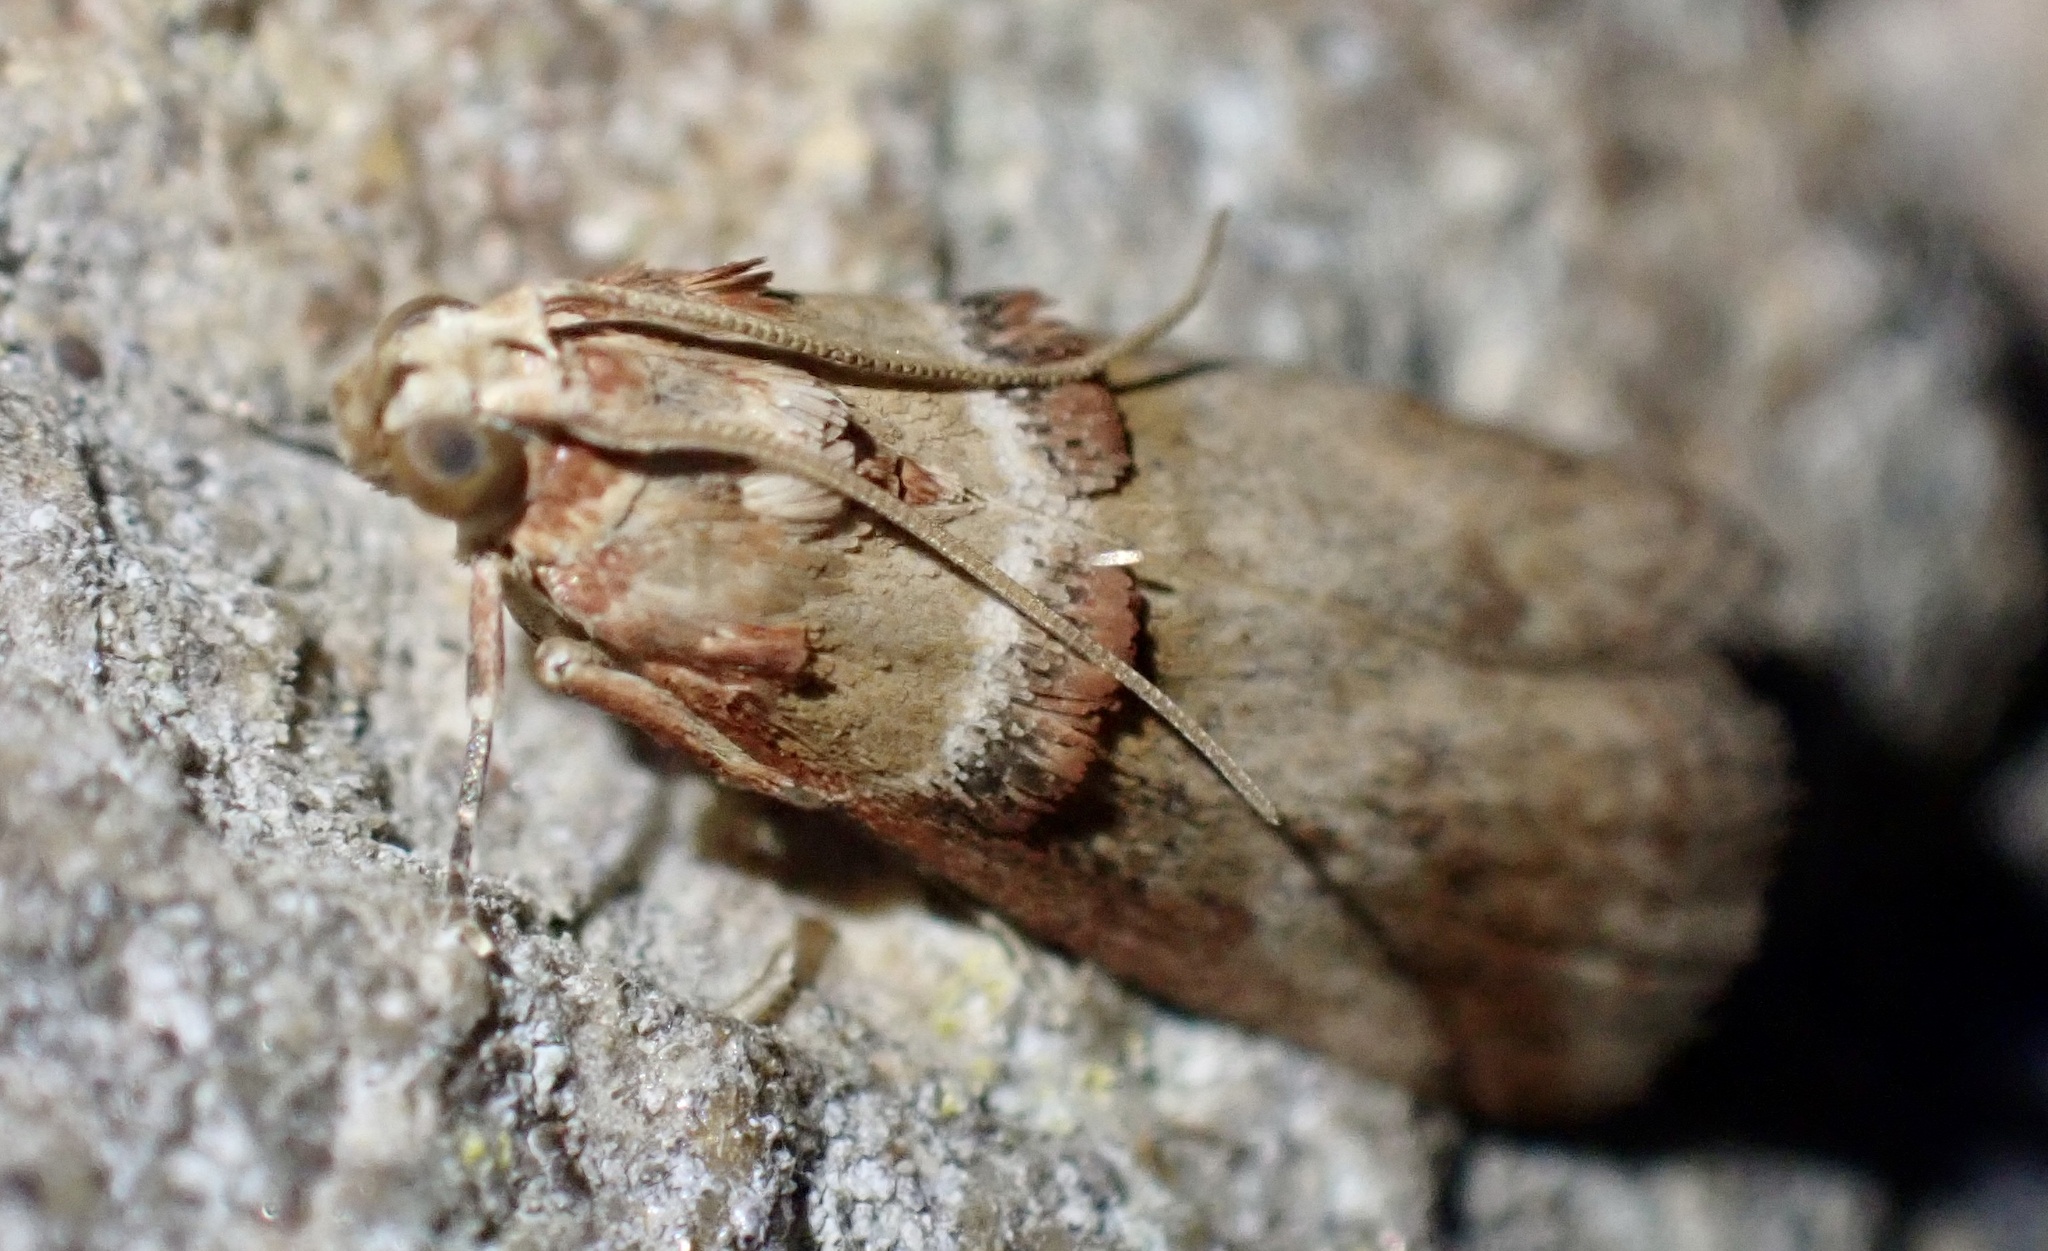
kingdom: Animalia
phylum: Arthropoda
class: Insecta
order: Lepidoptera
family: Pyralidae
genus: Acrobasis
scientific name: Acrobasis tumidana
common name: Scarce oak knot-horn
